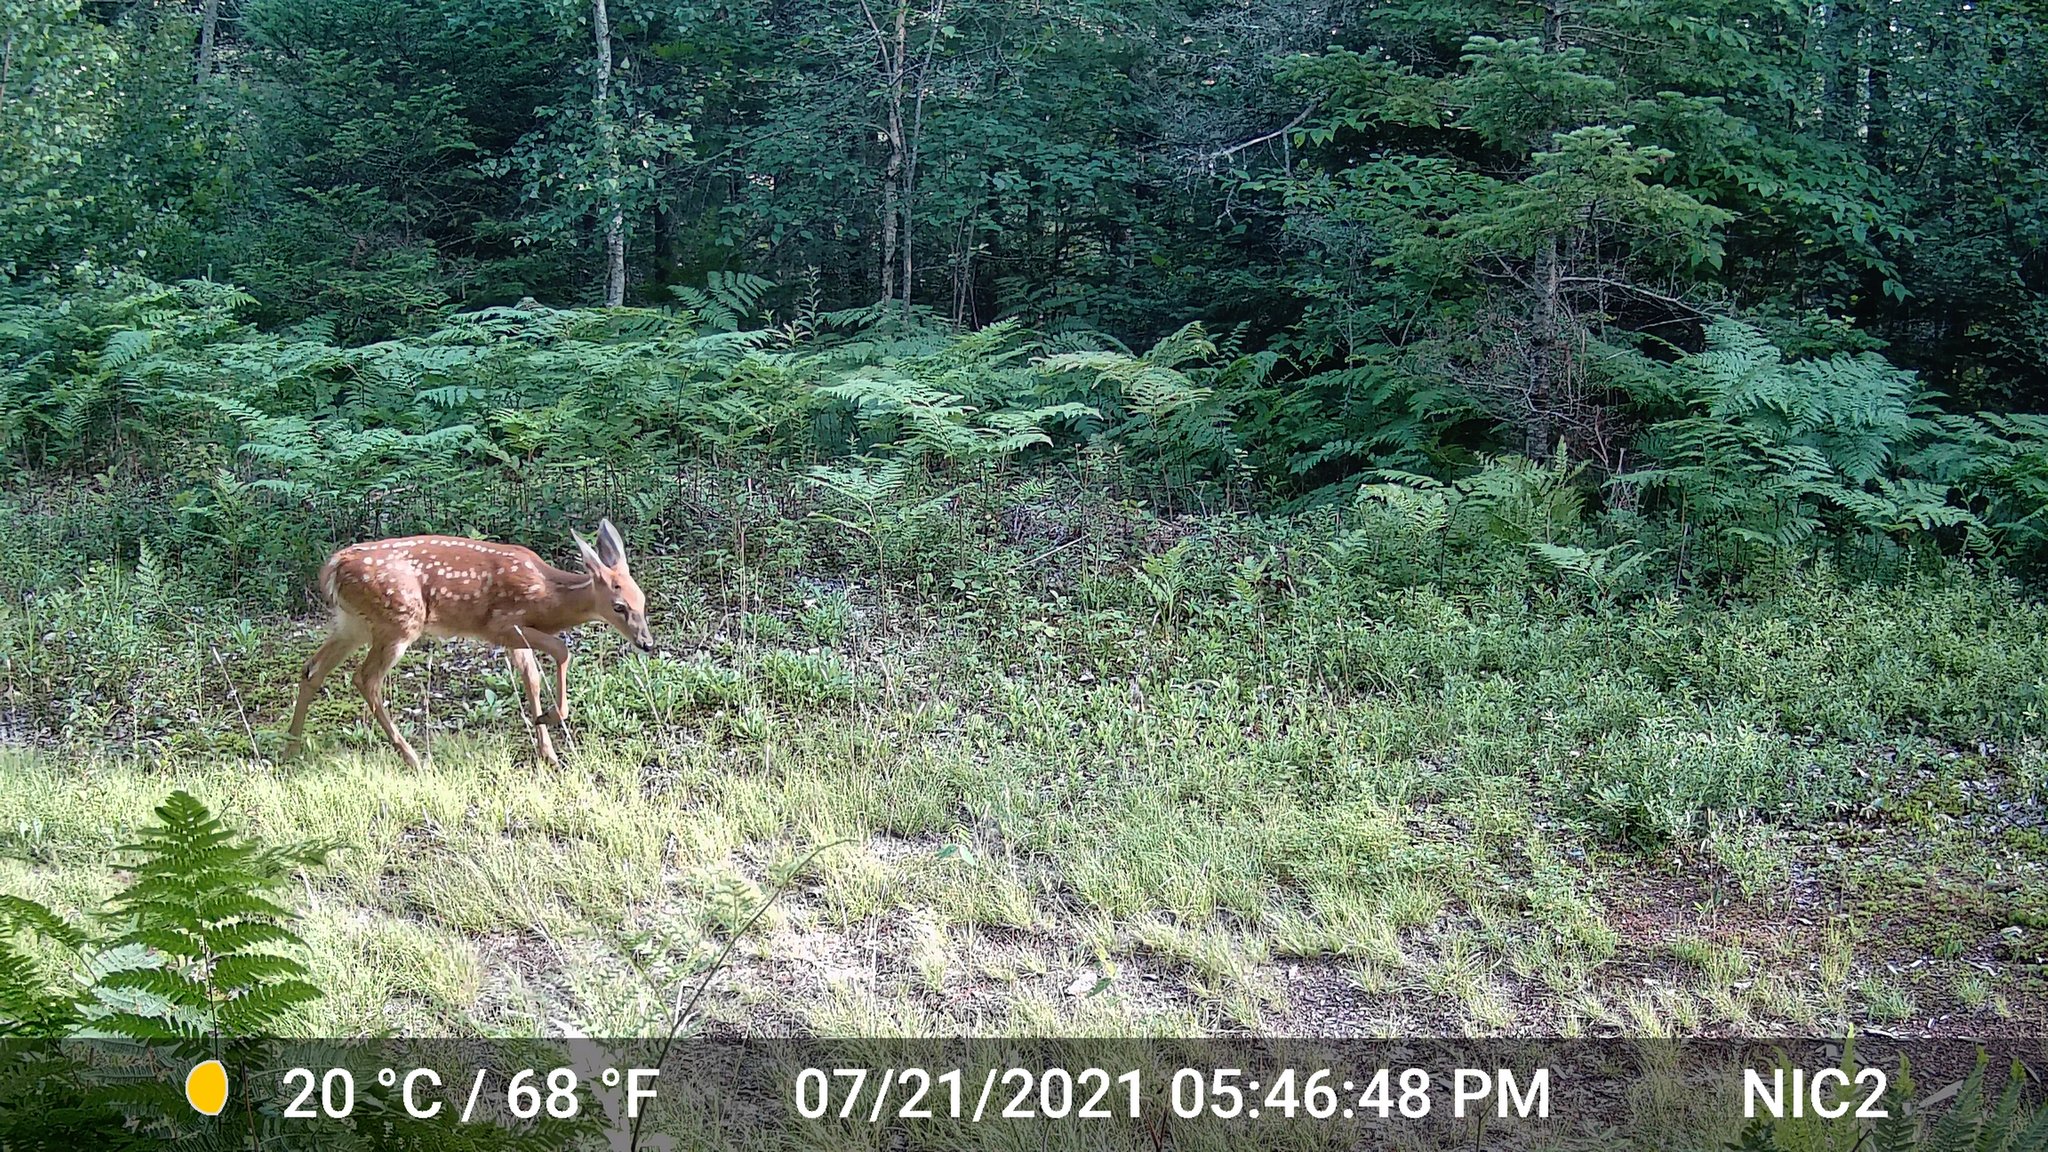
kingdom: Animalia
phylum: Chordata
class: Mammalia
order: Artiodactyla
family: Cervidae
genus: Odocoileus
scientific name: Odocoileus virginianus
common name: White-tailed deer
